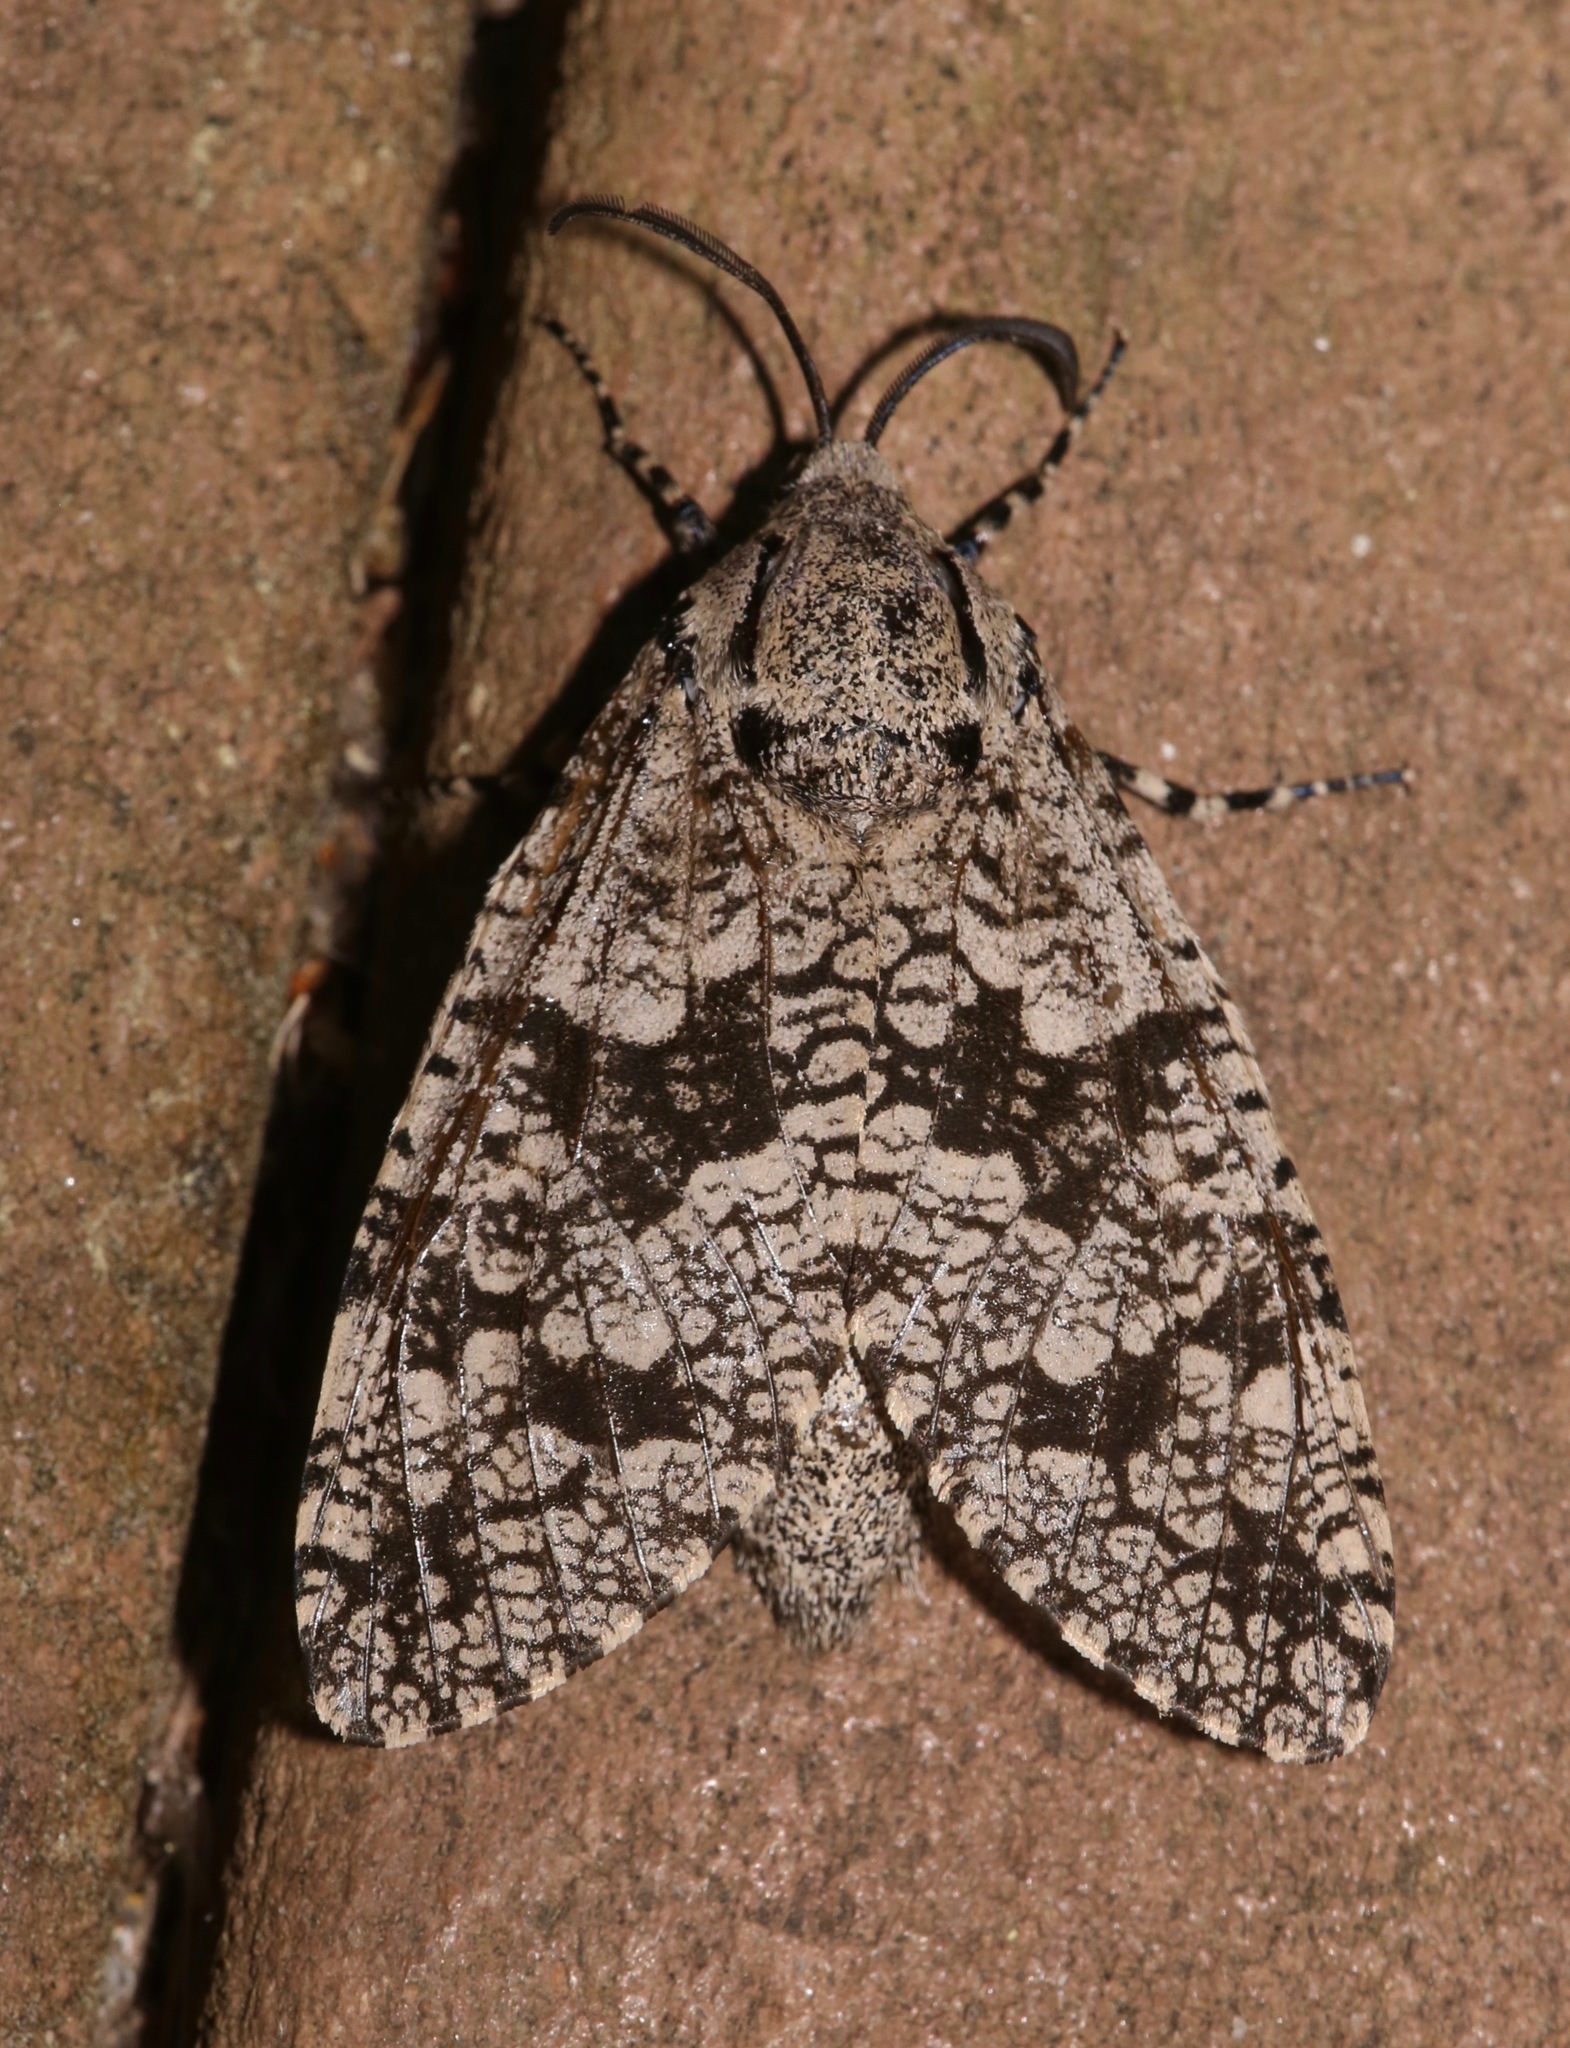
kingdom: Animalia
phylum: Arthropoda
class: Insecta
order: Lepidoptera
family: Cossidae
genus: Prionoxystus
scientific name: Prionoxystus robiniae
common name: Carpenterworm
